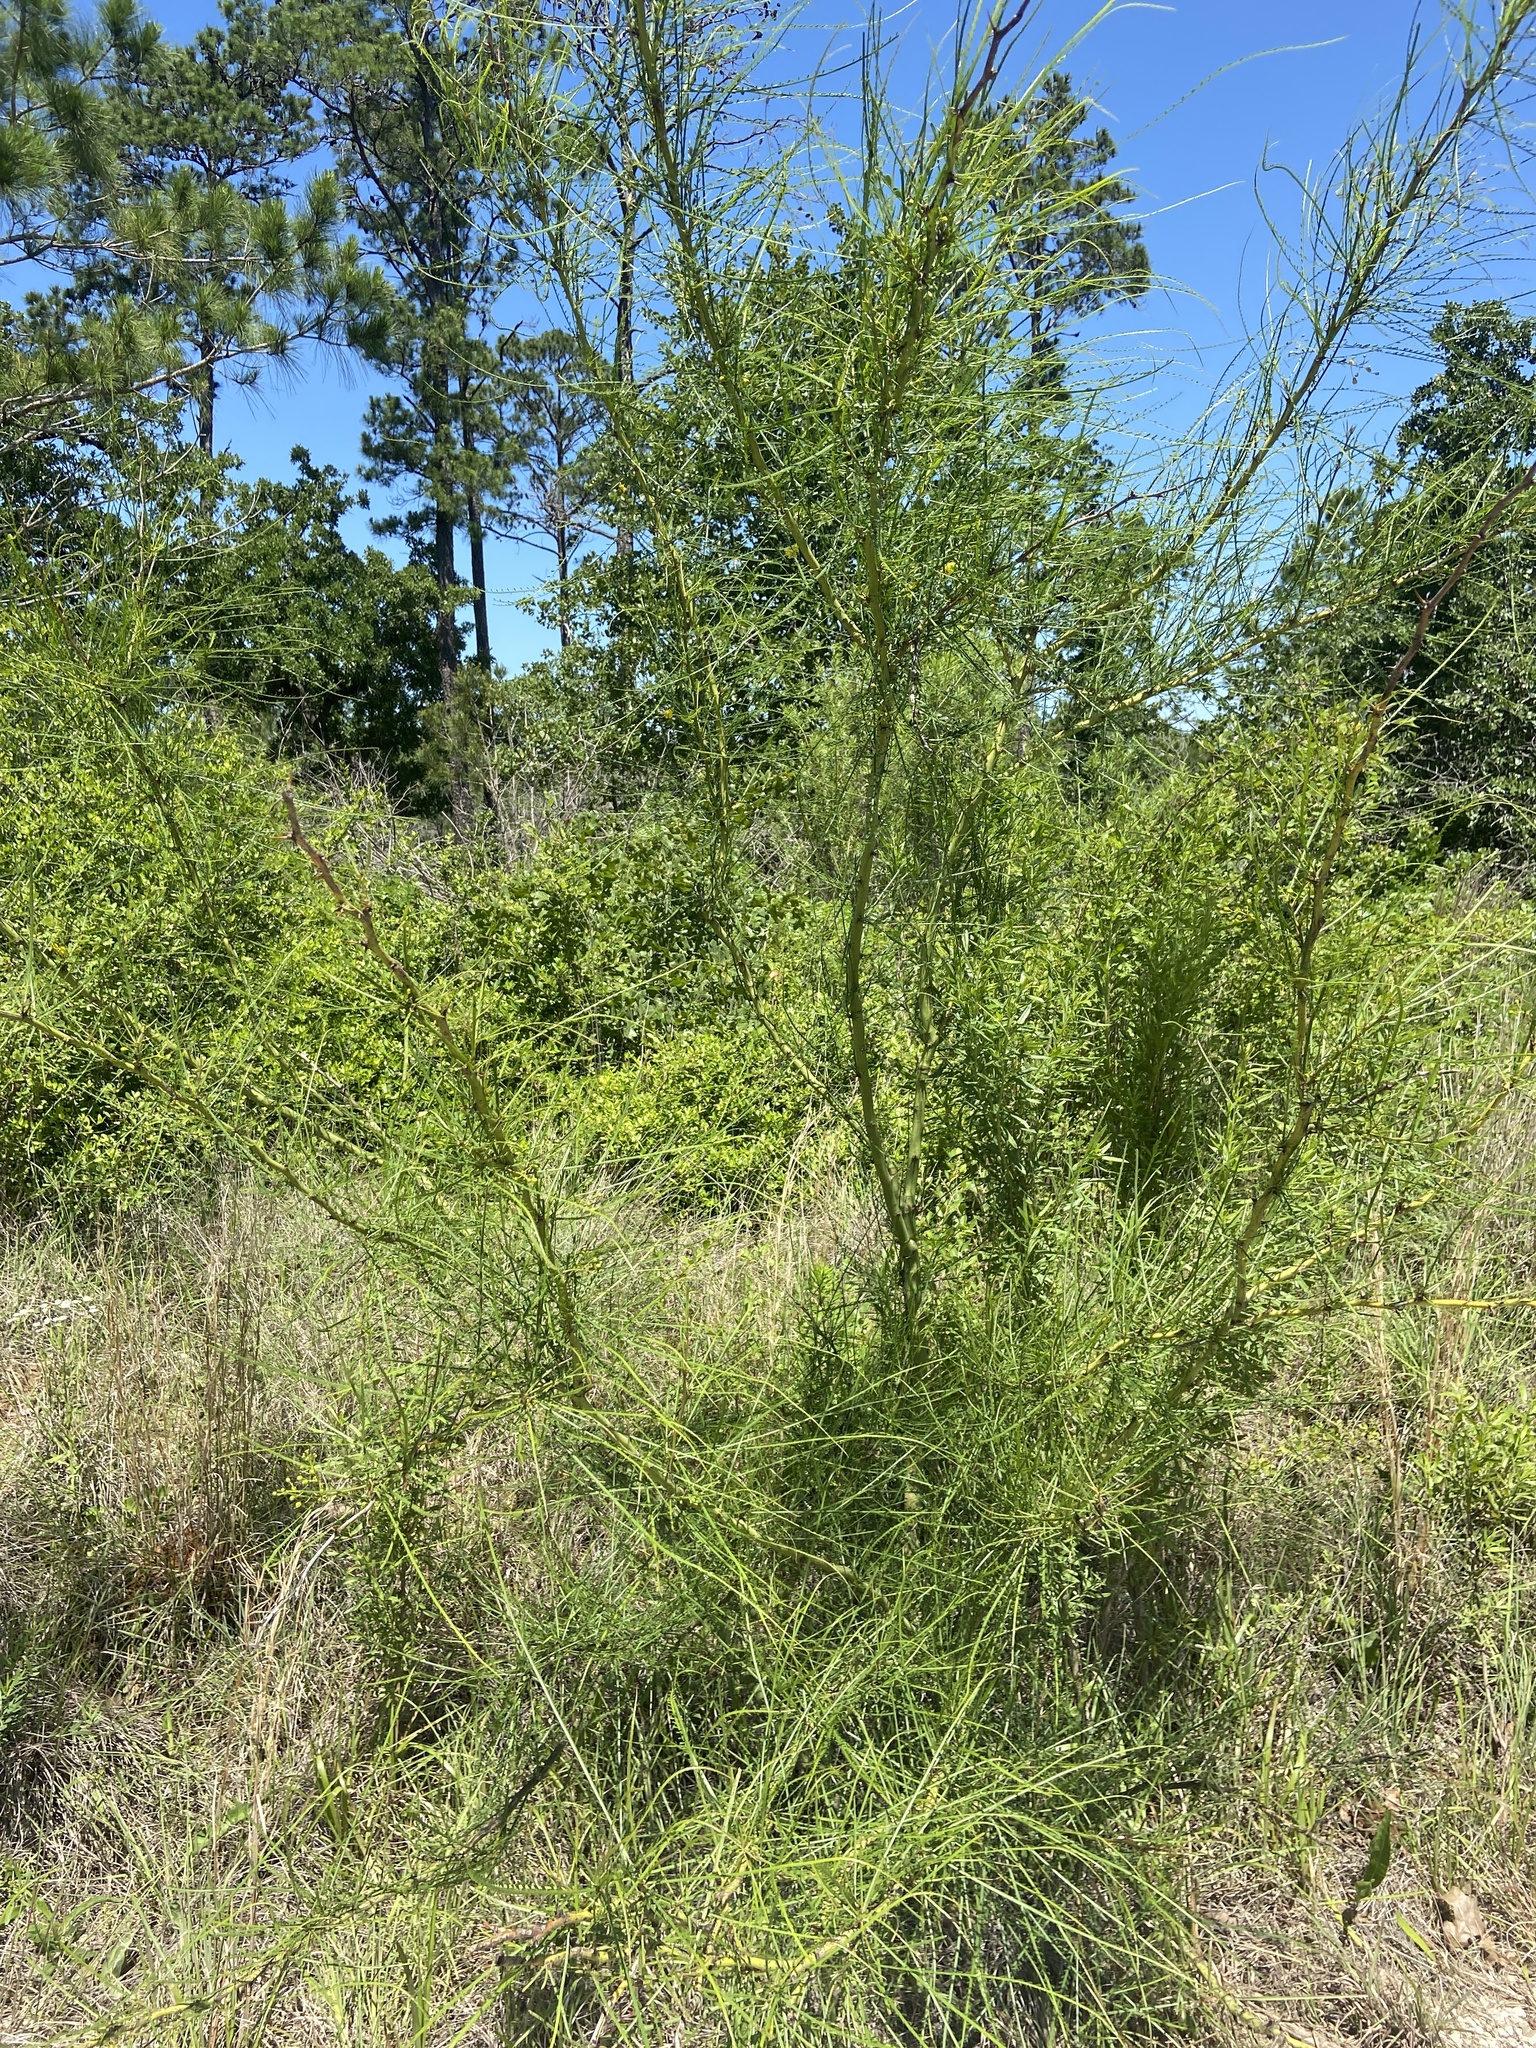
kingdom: Plantae
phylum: Tracheophyta
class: Magnoliopsida
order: Fabales
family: Fabaceae
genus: Parkinsonia
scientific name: Parkinsonia aculeata
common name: Jerusalem thorn
